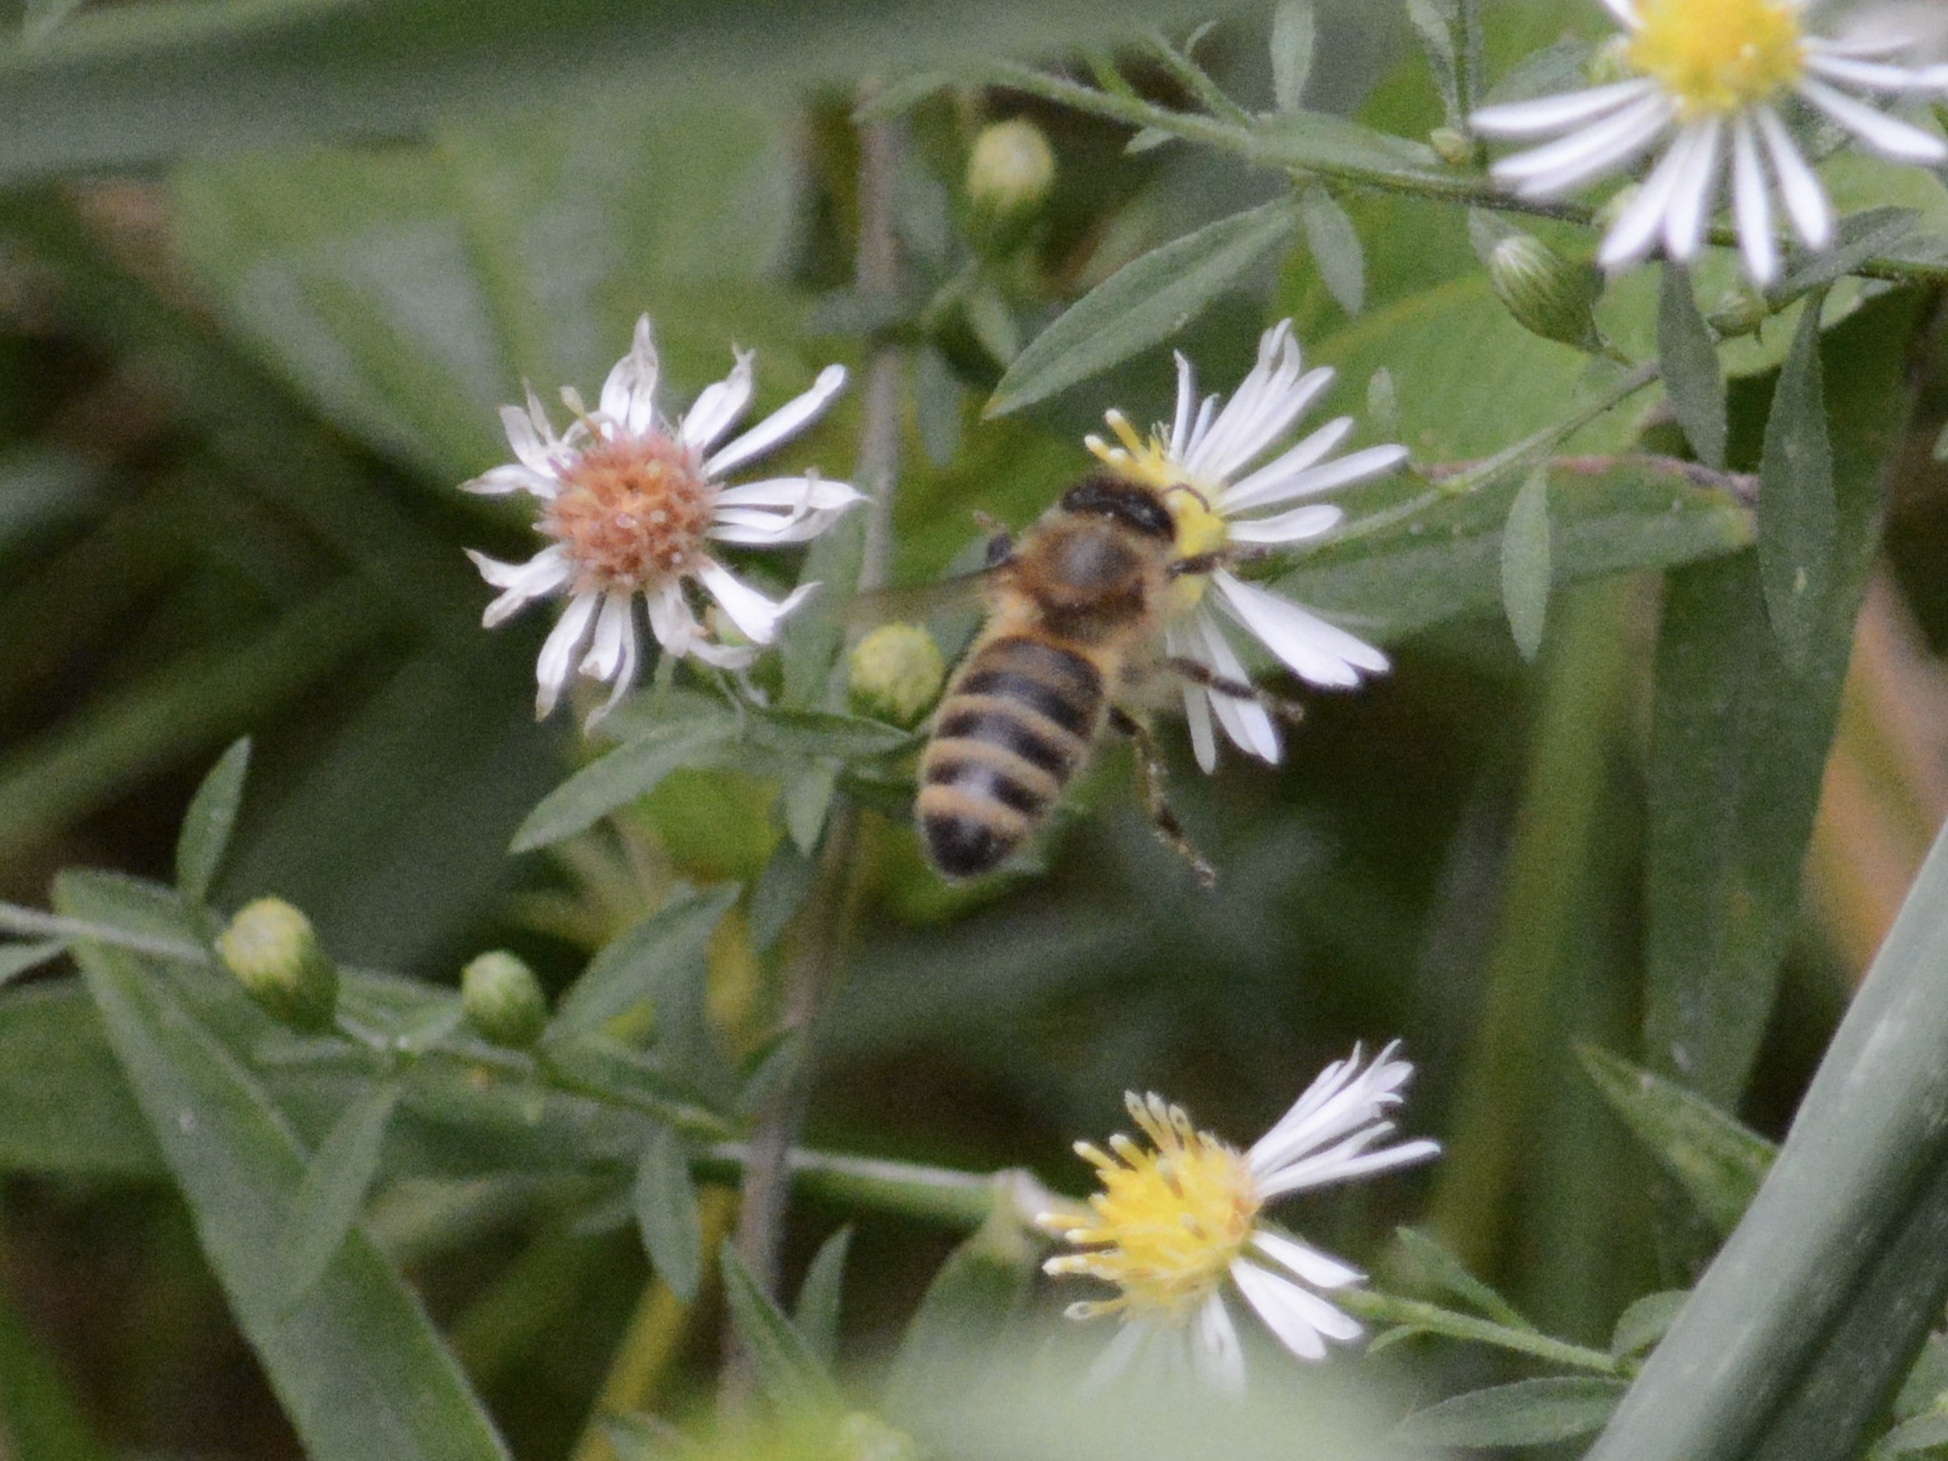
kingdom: Animalia
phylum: Arthropoda
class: Insecta
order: Hymenoptera
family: Apidae
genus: Apis
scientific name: Apis mellifera
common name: Honey bee
